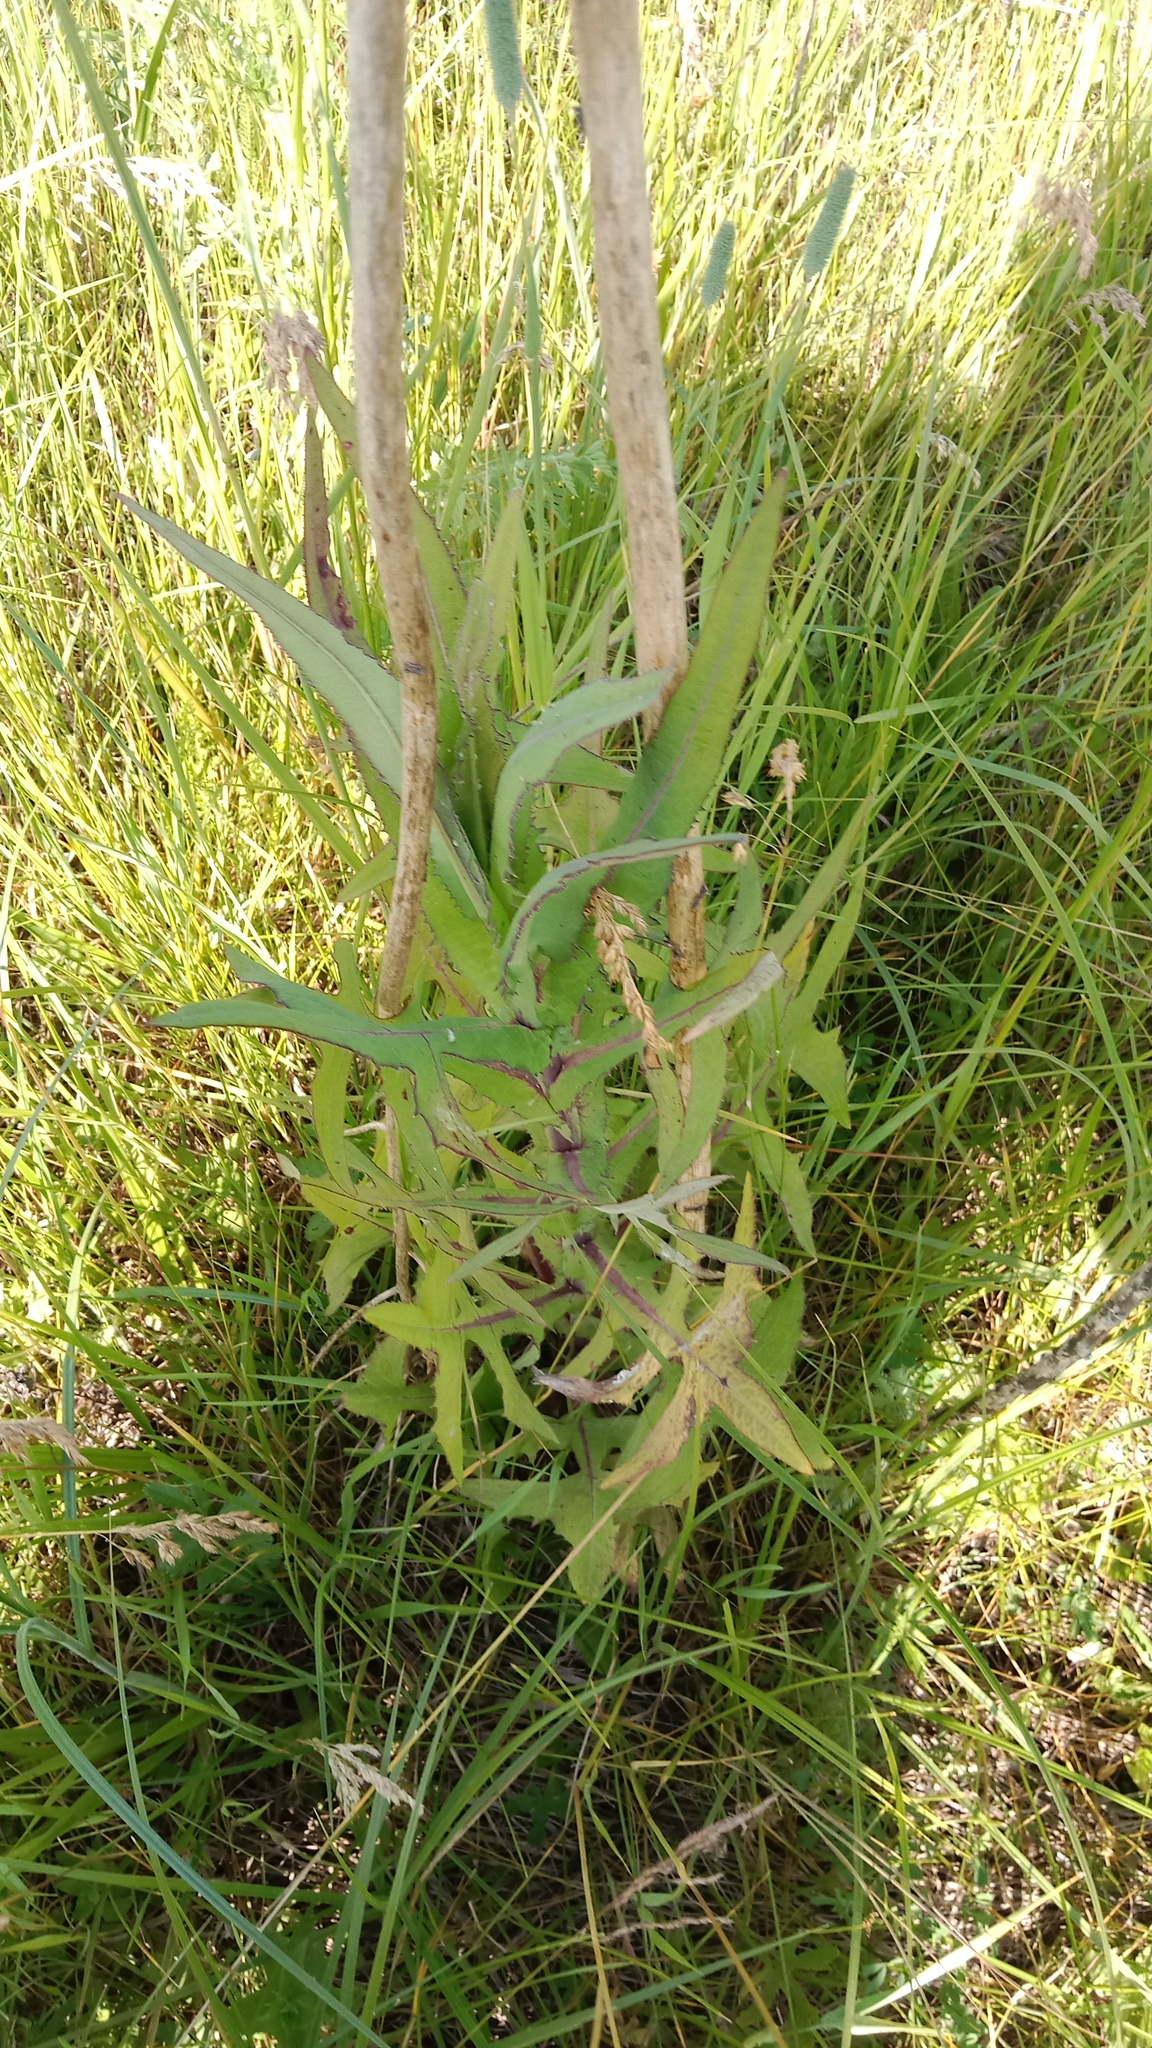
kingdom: Plantae
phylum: Tracheophyta
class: Magnoliopsida
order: Asterales
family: Asteraceae
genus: Sonchus
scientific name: Sonchus palustris
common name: Marsh sow-thistle
